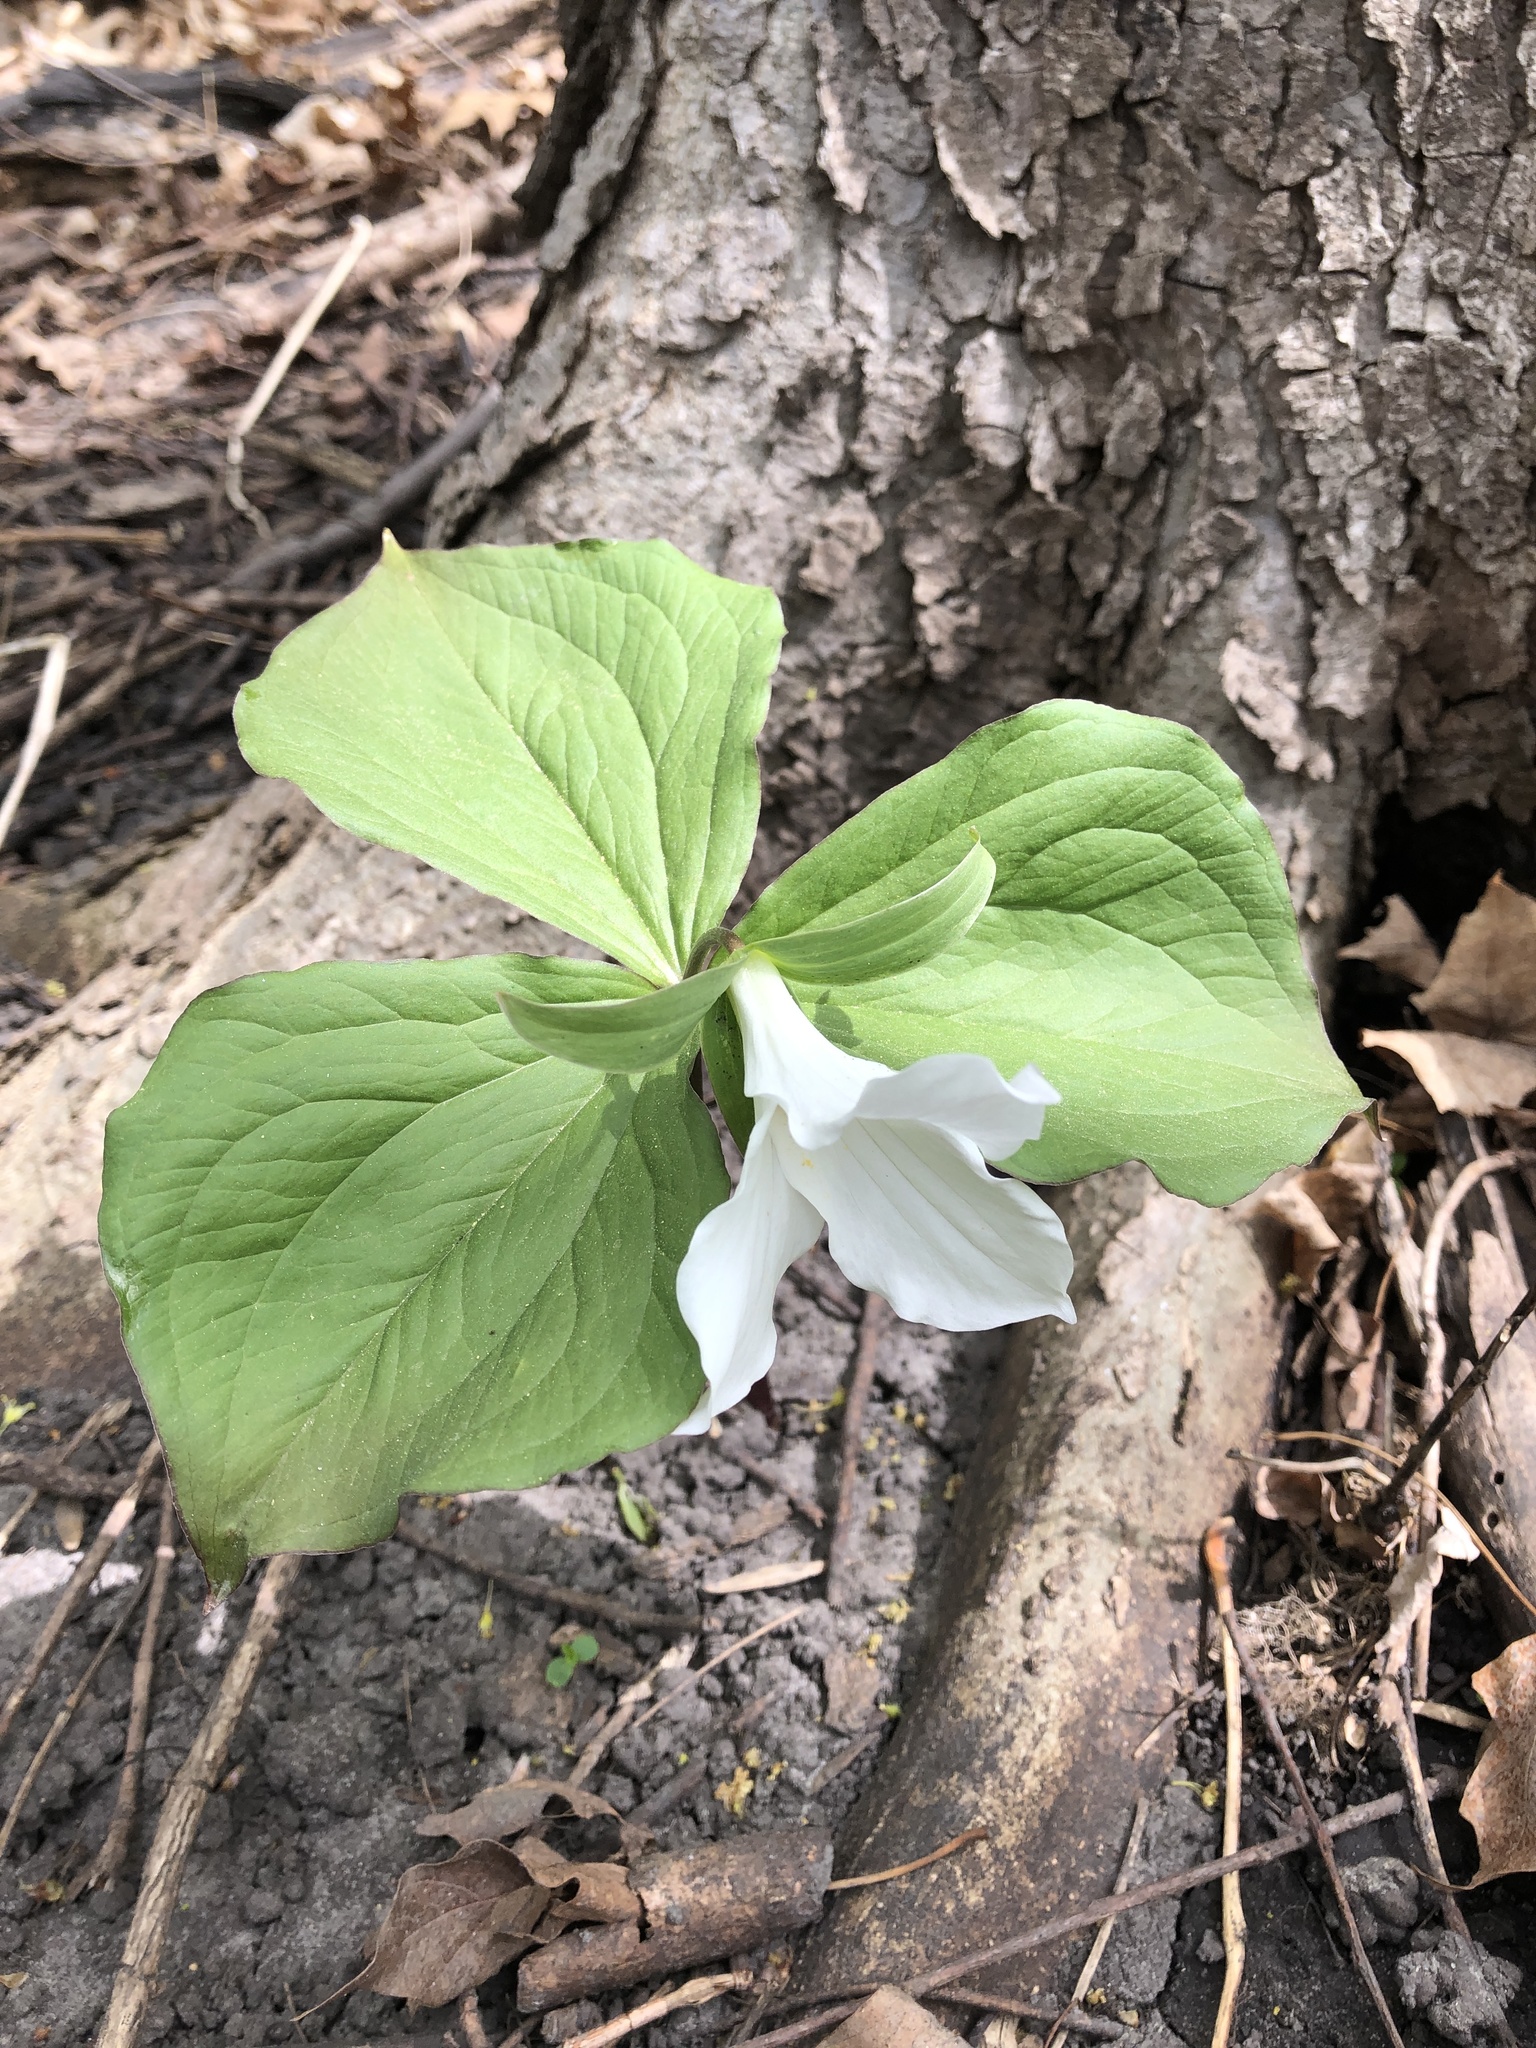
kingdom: Plantae
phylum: Tracheophyta
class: Liliopsida
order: Liliales
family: Melanthiaceae
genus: Trillium
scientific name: Trillium grandiflorum
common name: Great white trillium
